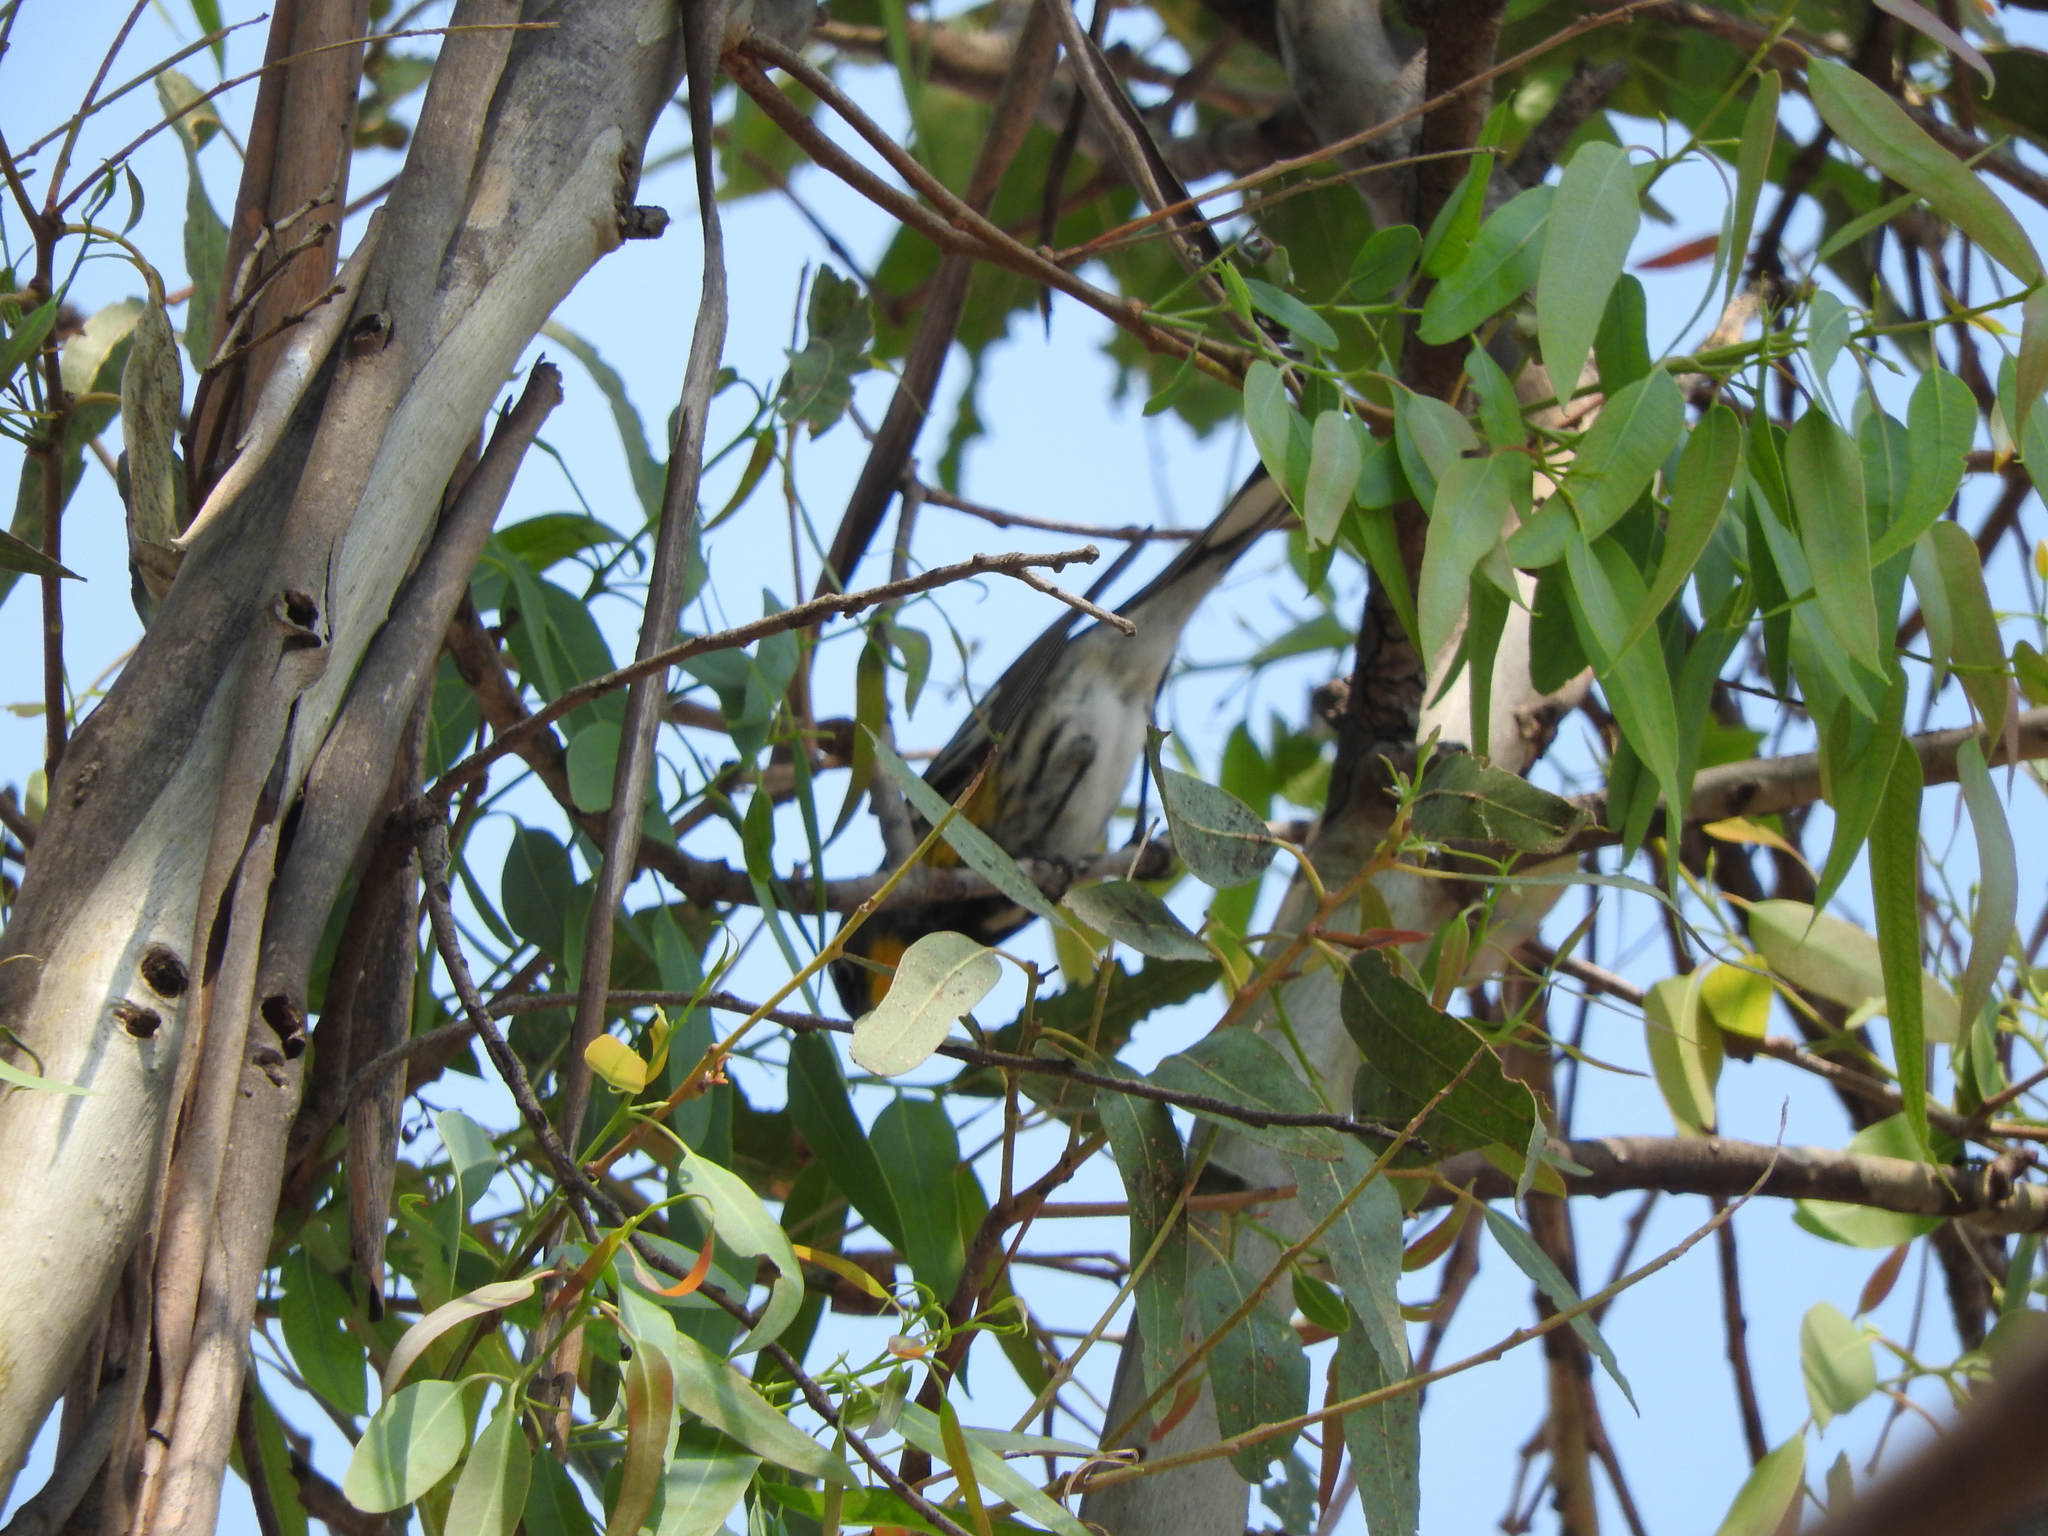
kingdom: Animalia
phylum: Chordata
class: Aves
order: Passeriformes
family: Parulidae
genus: Setophaga
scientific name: Setophaga coronata
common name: Myrtle warbler
